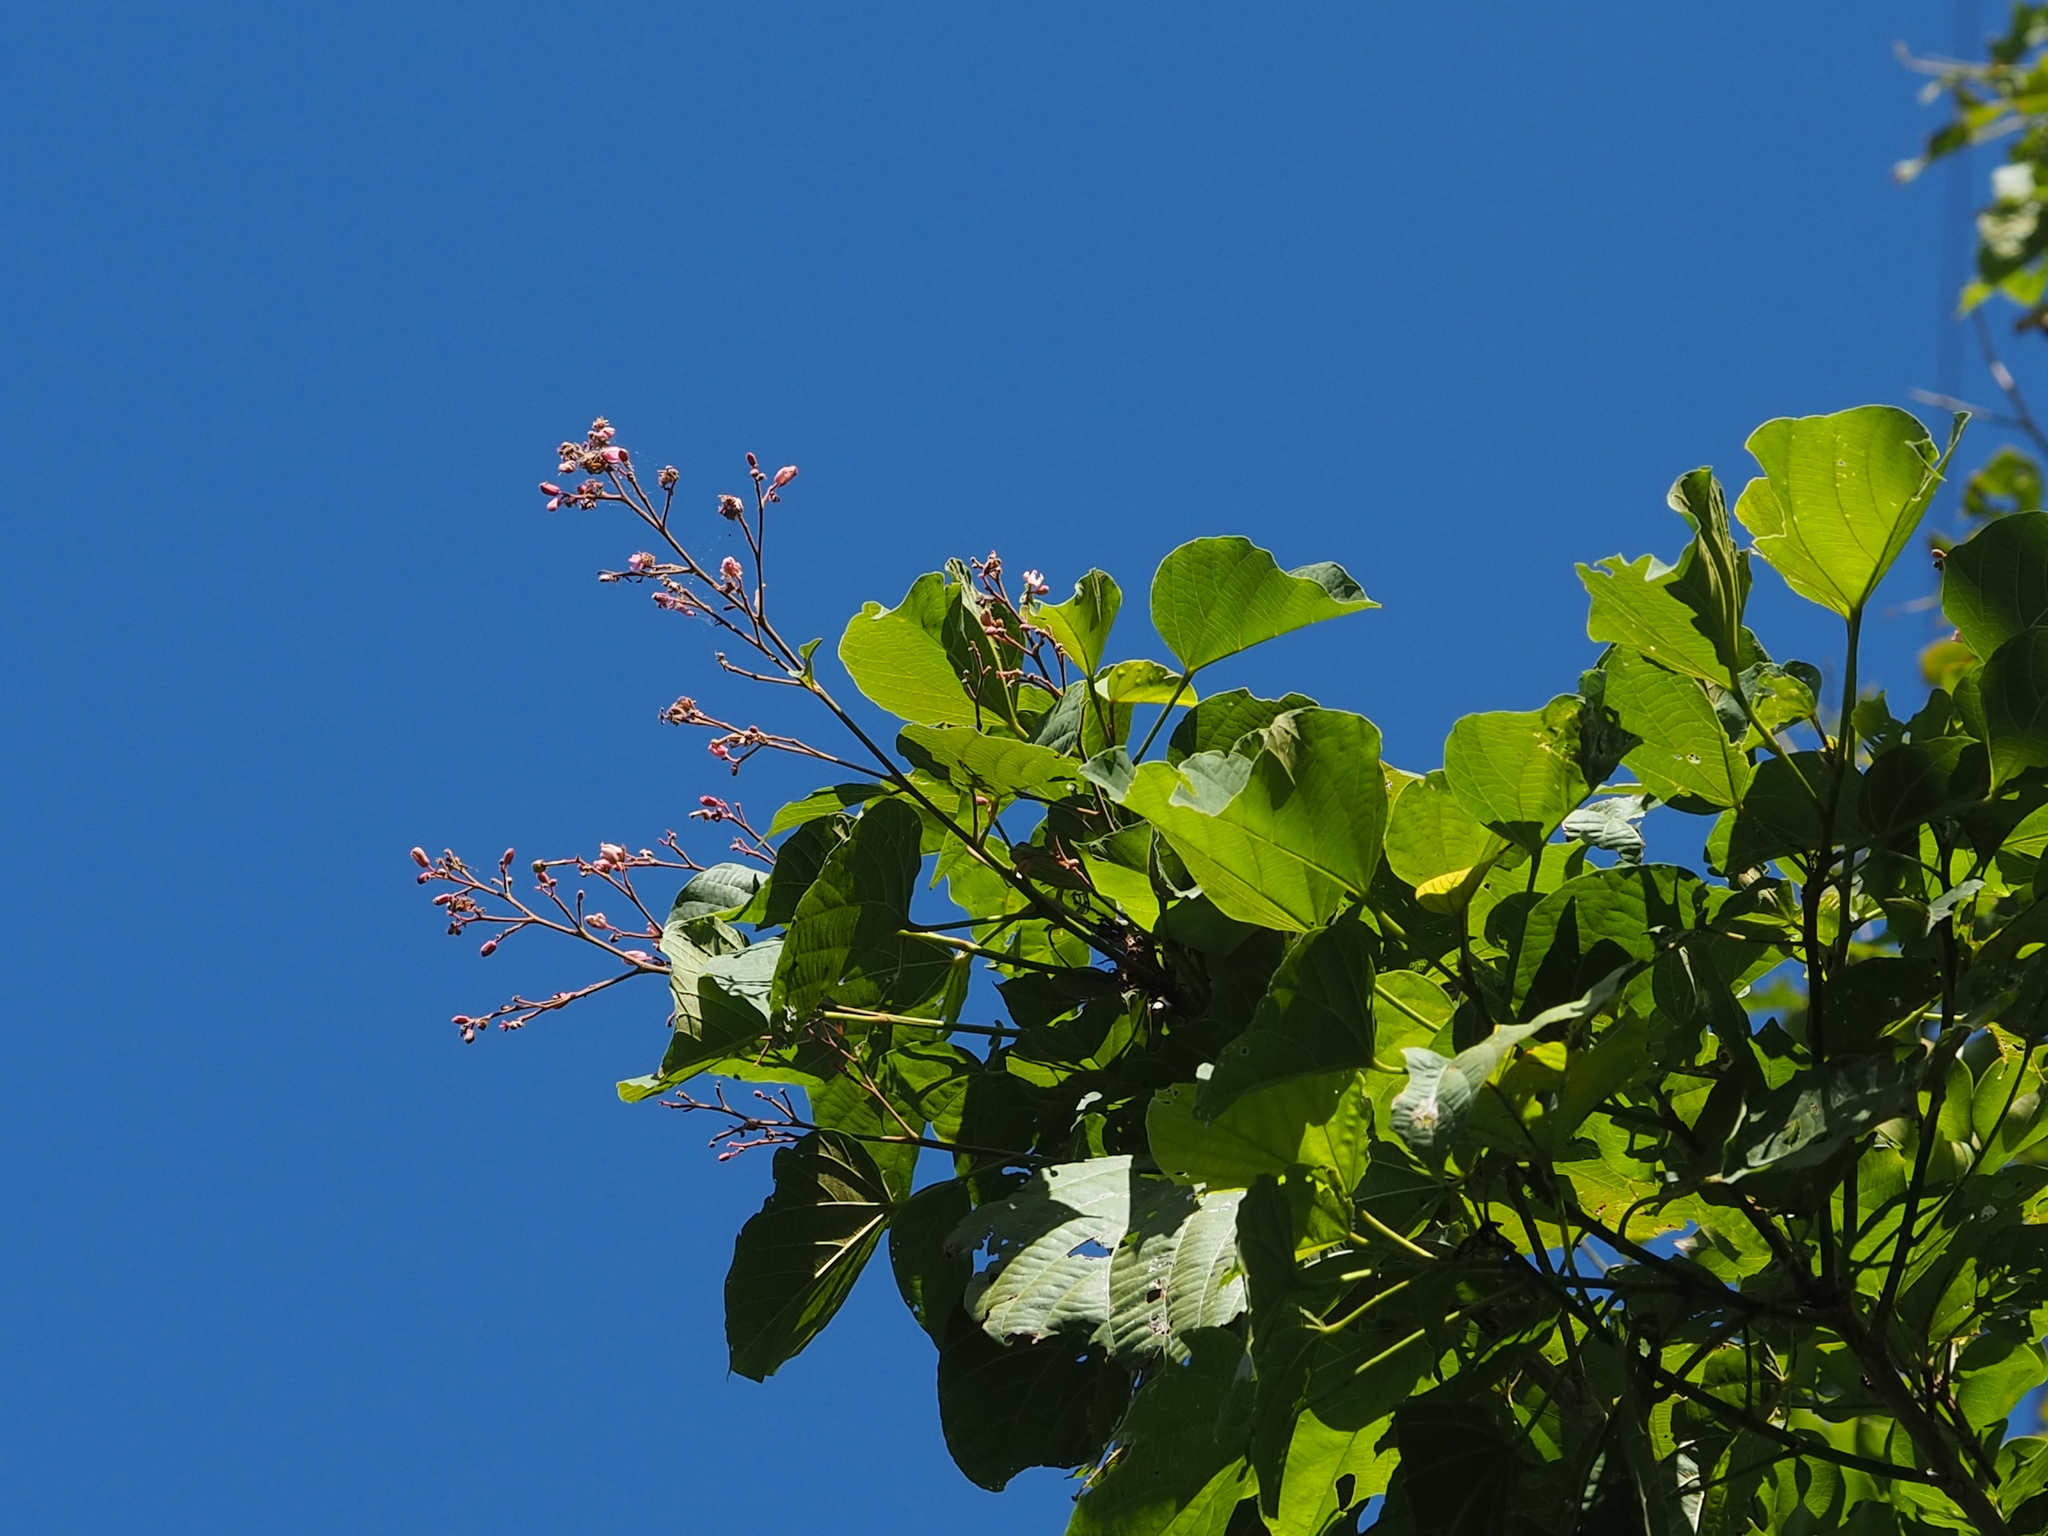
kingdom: Plantae
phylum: Tracheophyta
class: Magnoliopsida
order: Malvales
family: Malvaceae
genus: Kleinhovia
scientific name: Kleinhovia hospita
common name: Guest-tree
